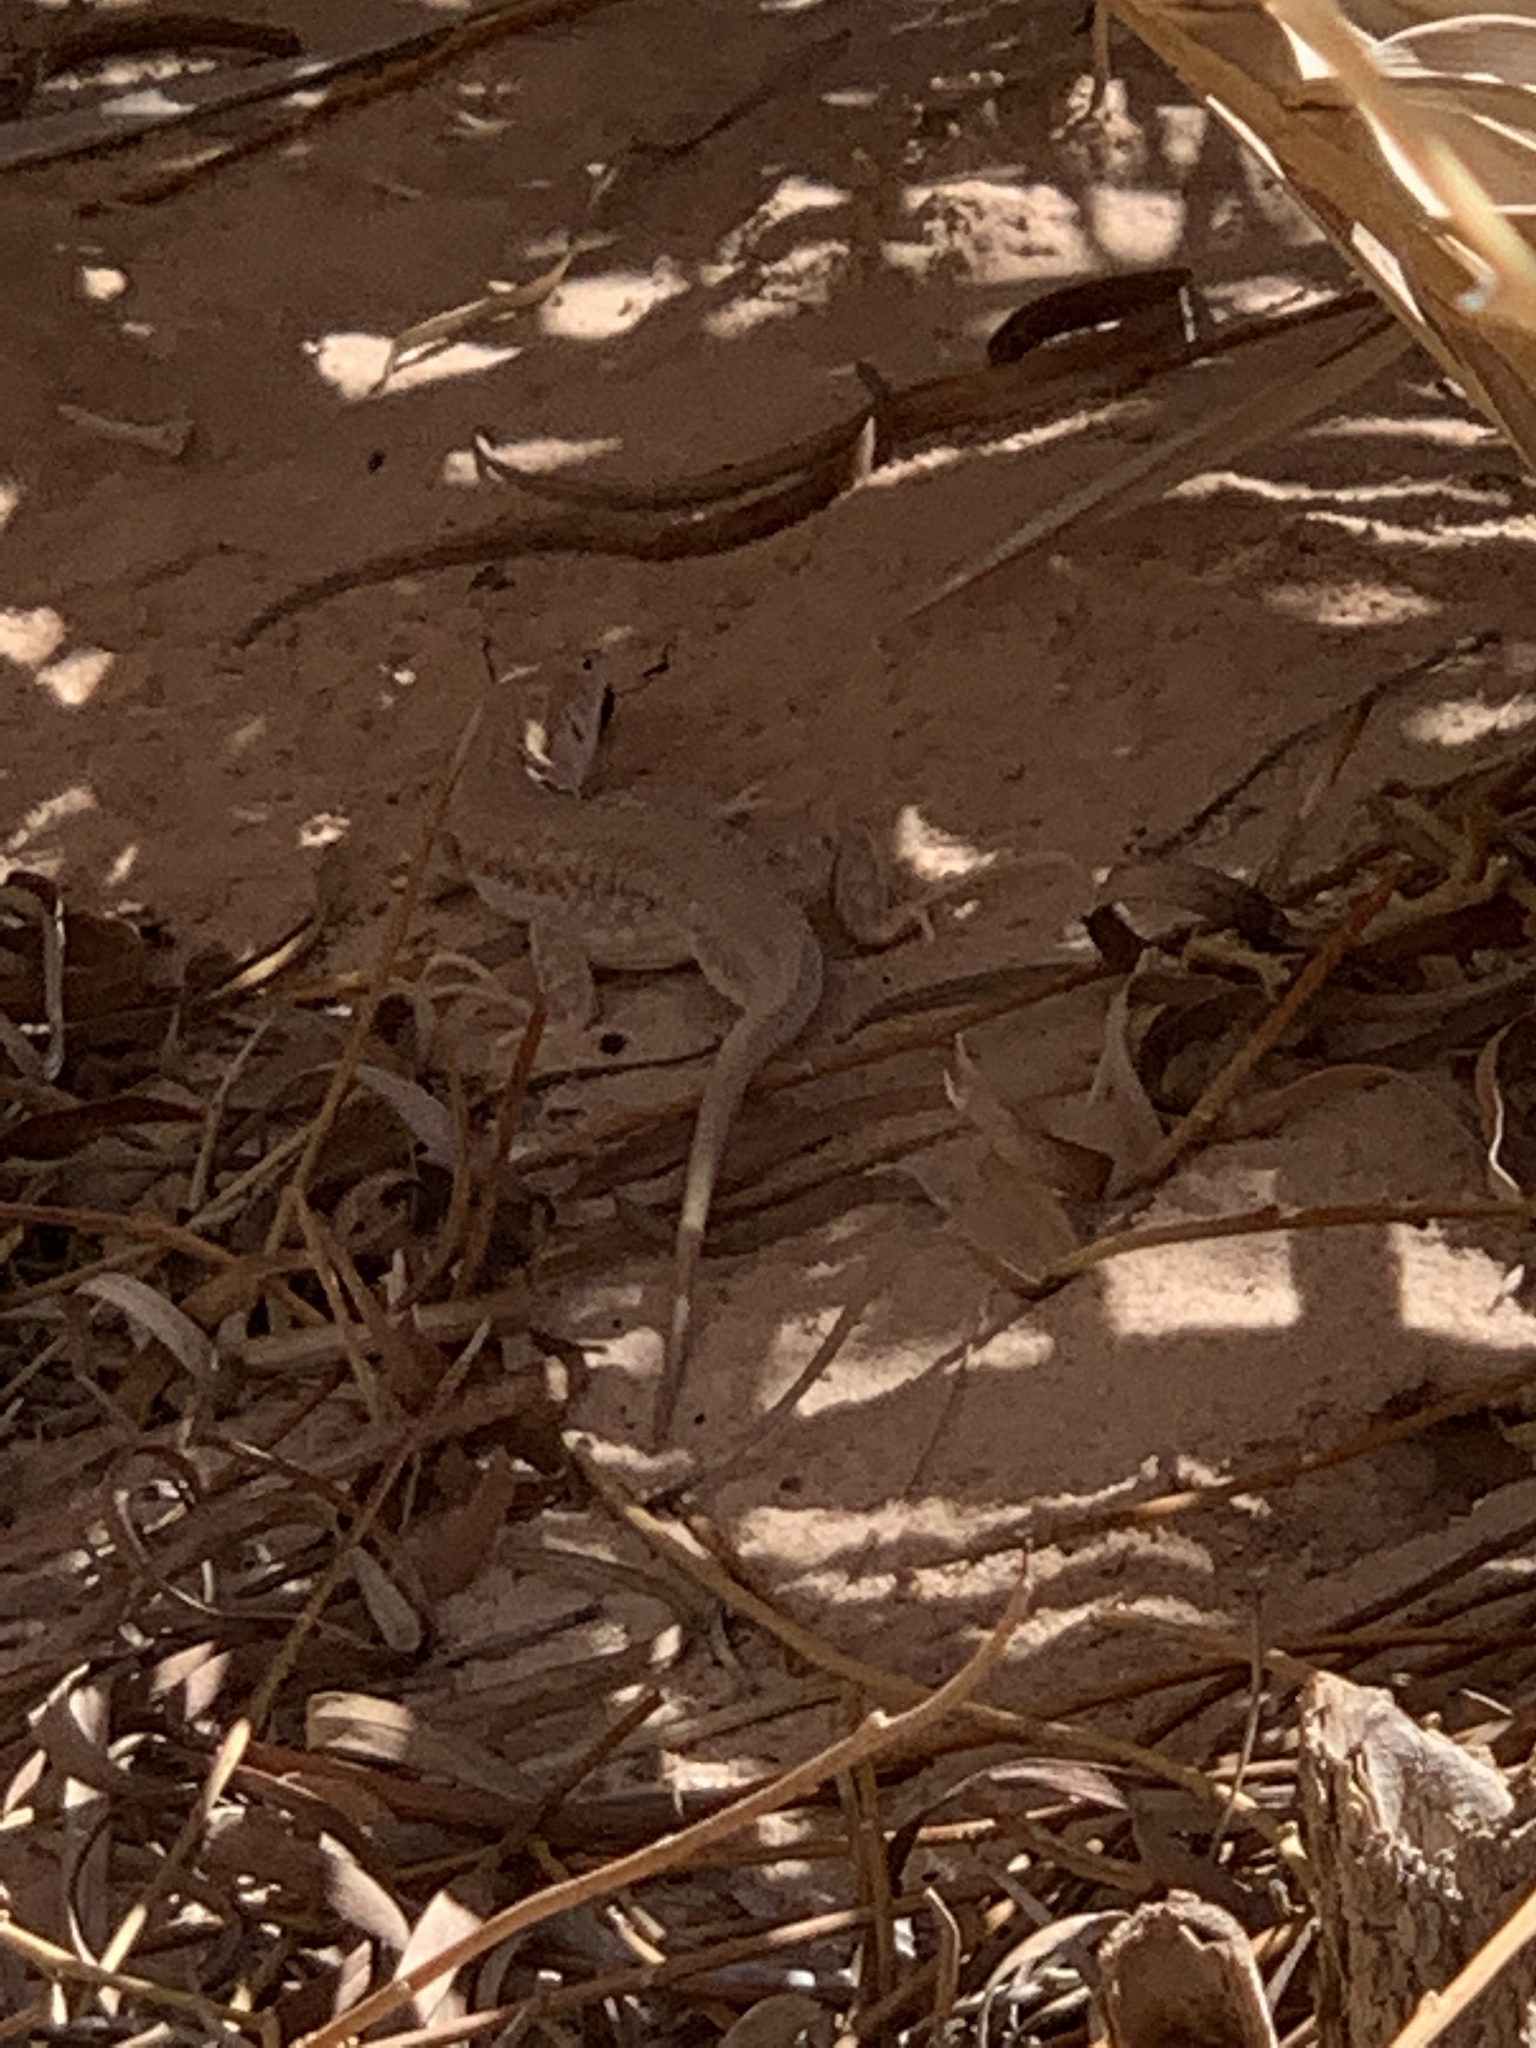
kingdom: Animalia
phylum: Chordata
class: Squamata
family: Lacertidae
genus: Acanthodactylus
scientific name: Acanthodactylus boskianus
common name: Bosc’s fringe-toed lizard
